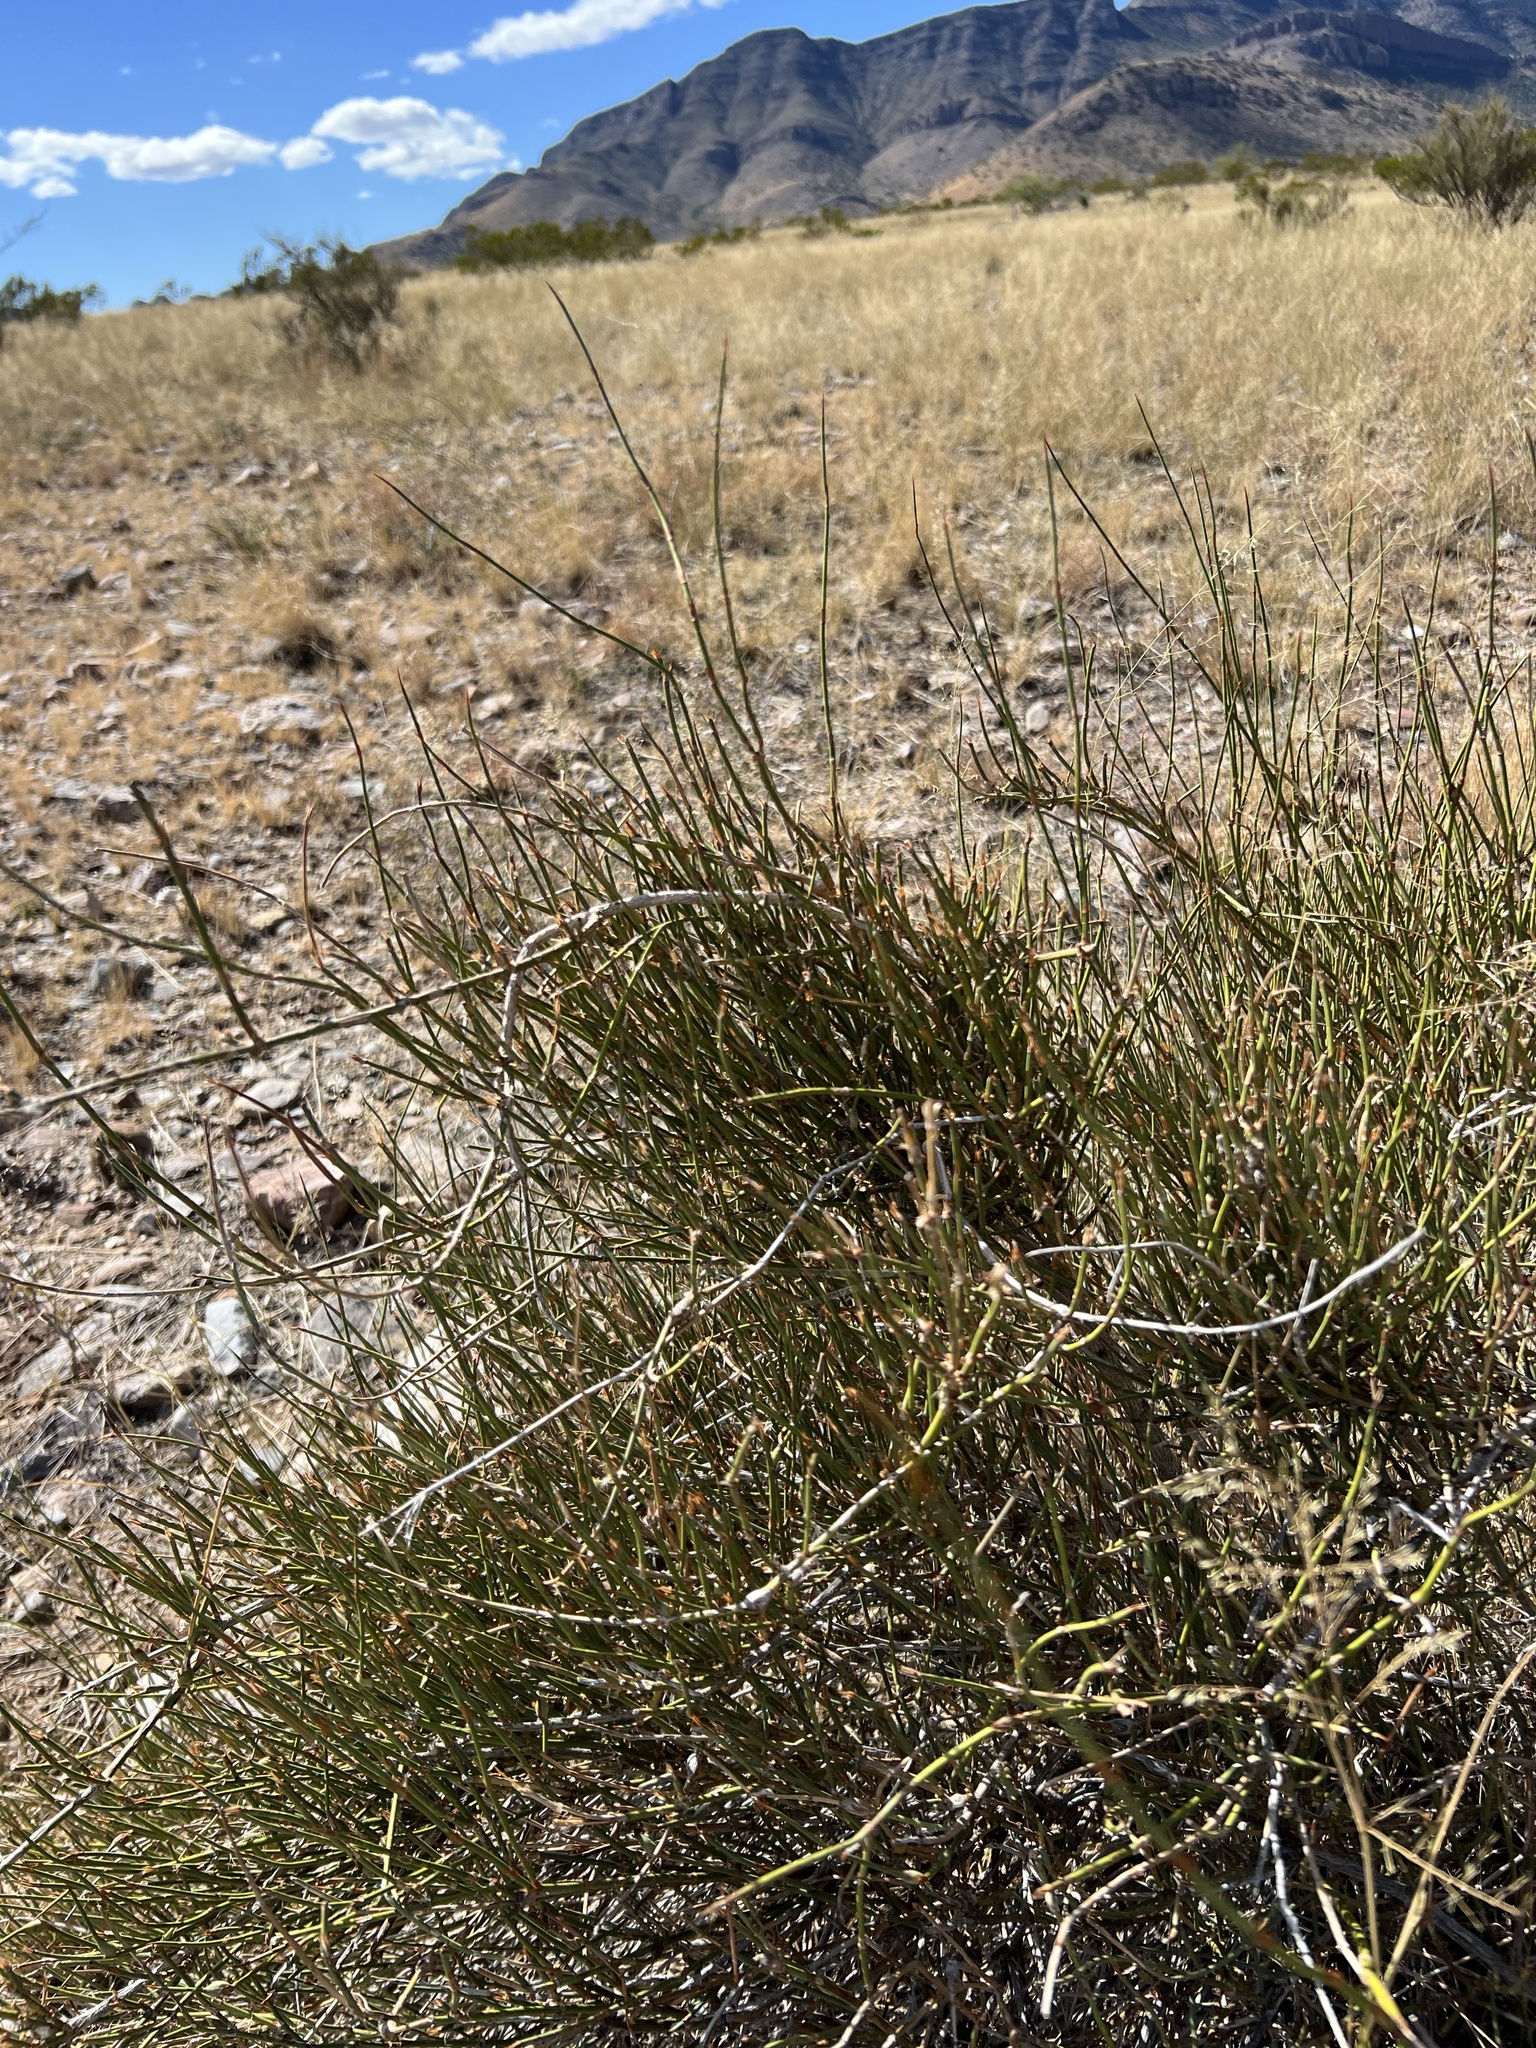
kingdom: Plantae
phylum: Tracheophyta
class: Gnetopsida
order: Ephedrales
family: Ephedraceae
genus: Ephedra
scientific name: Ephedra trifurca
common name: Mexican-tea
